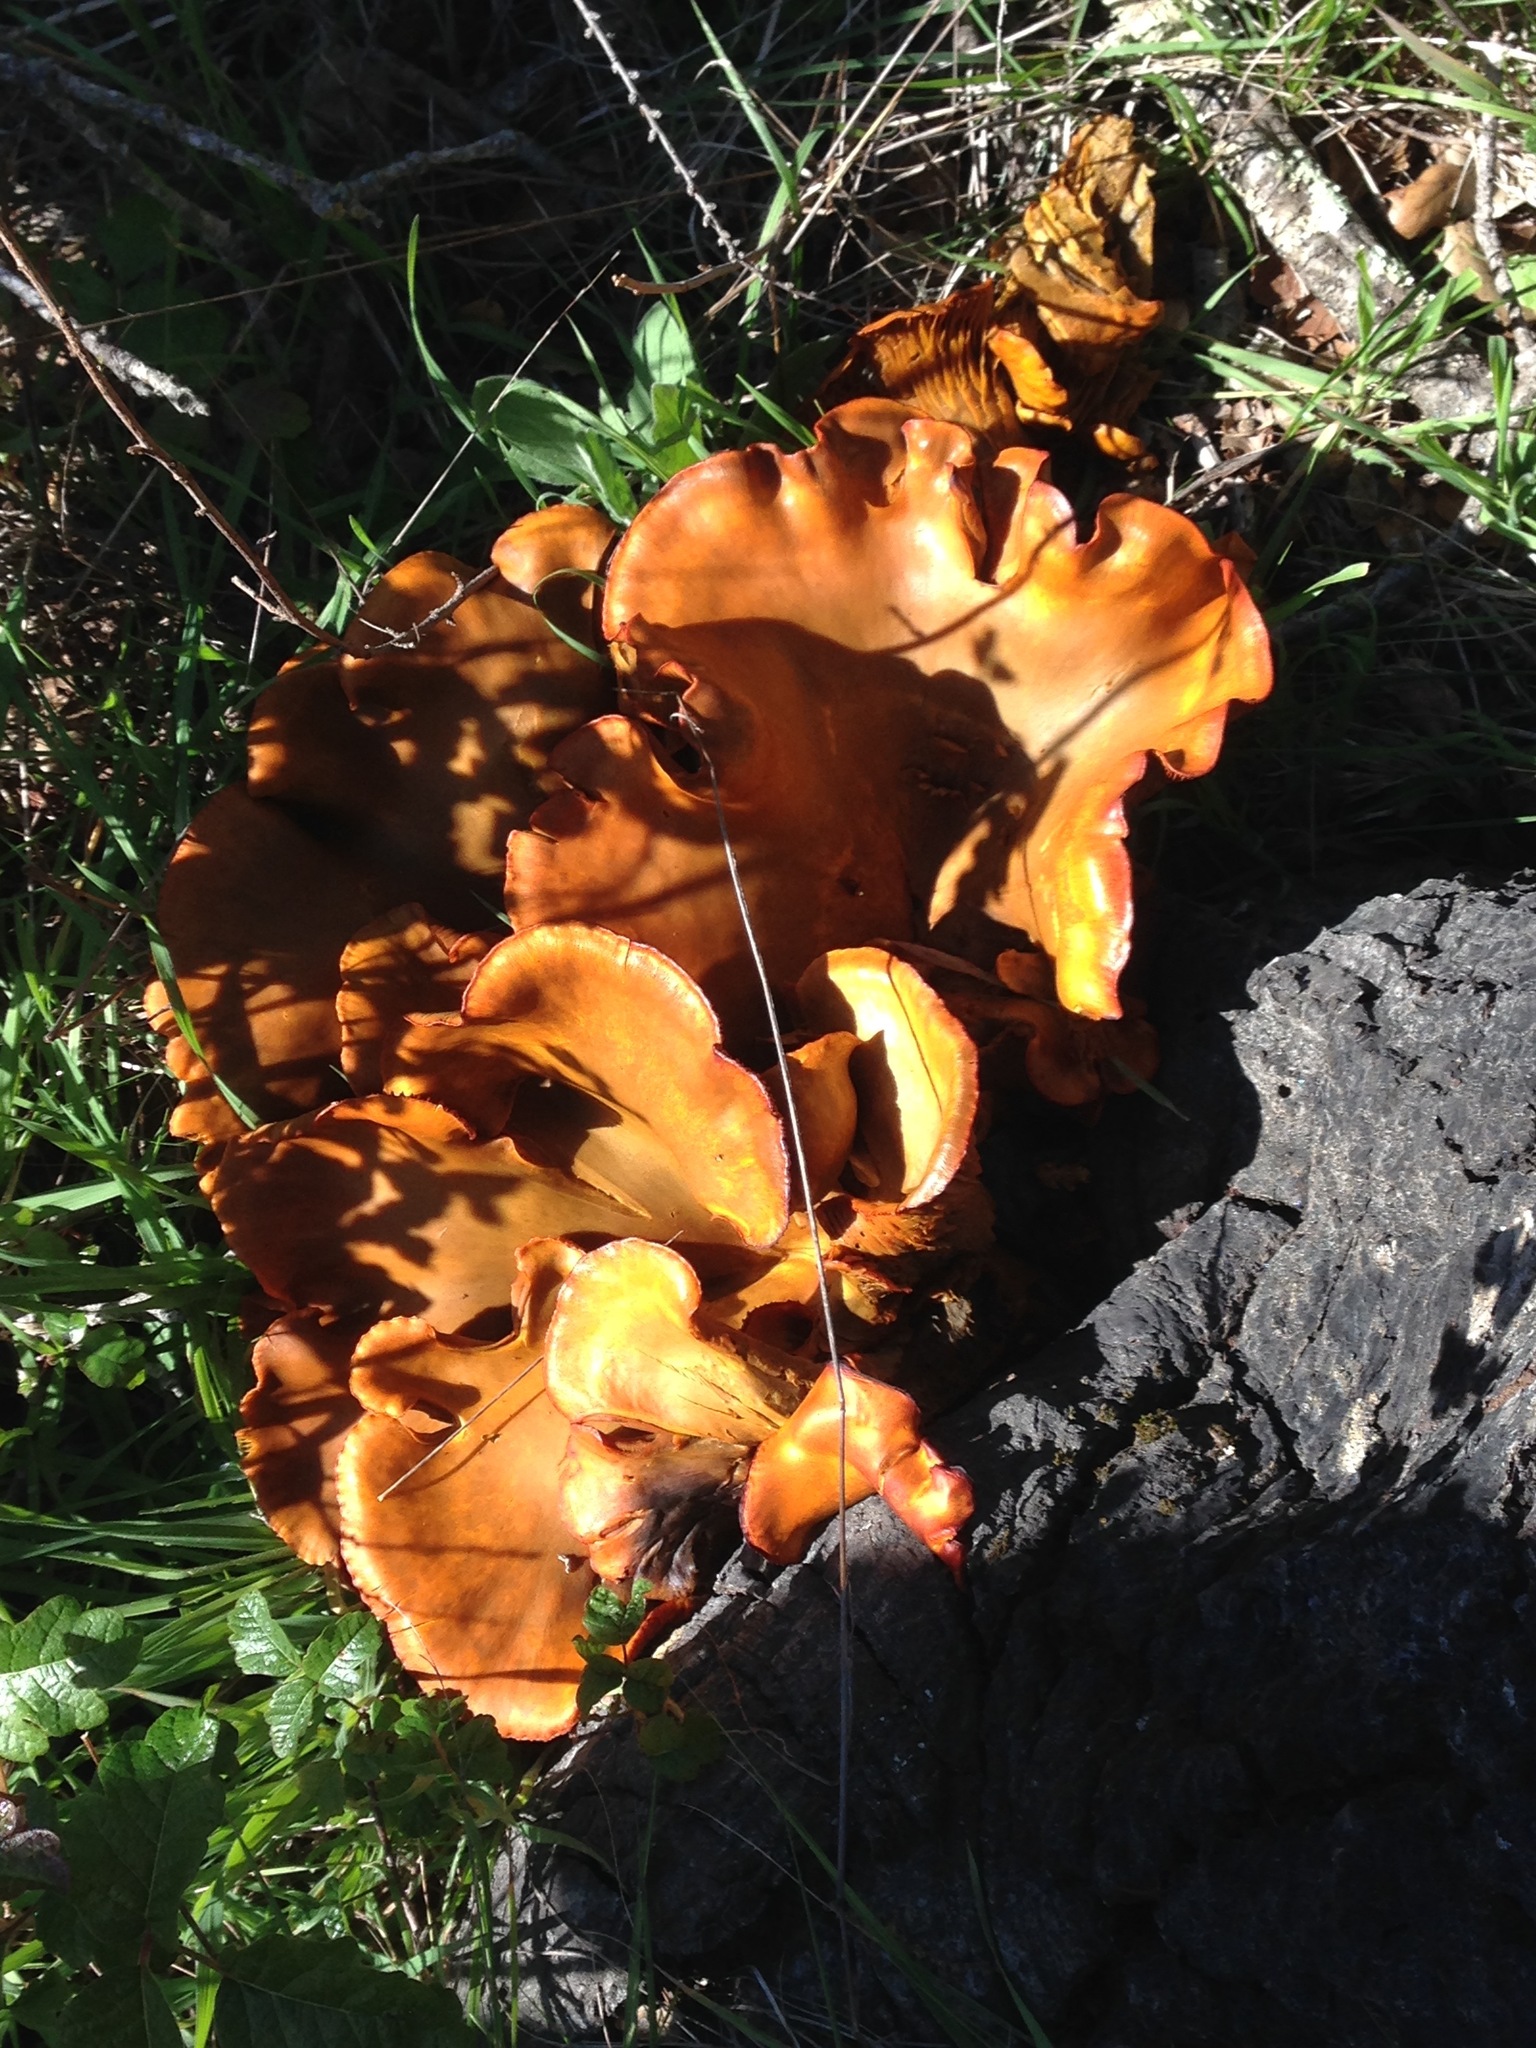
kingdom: Fungi
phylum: Basidiomycota
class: Agaricomycetes
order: Agaricales
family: Omphalotaceae
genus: Omphalotus
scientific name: Omphalotus olivascens
